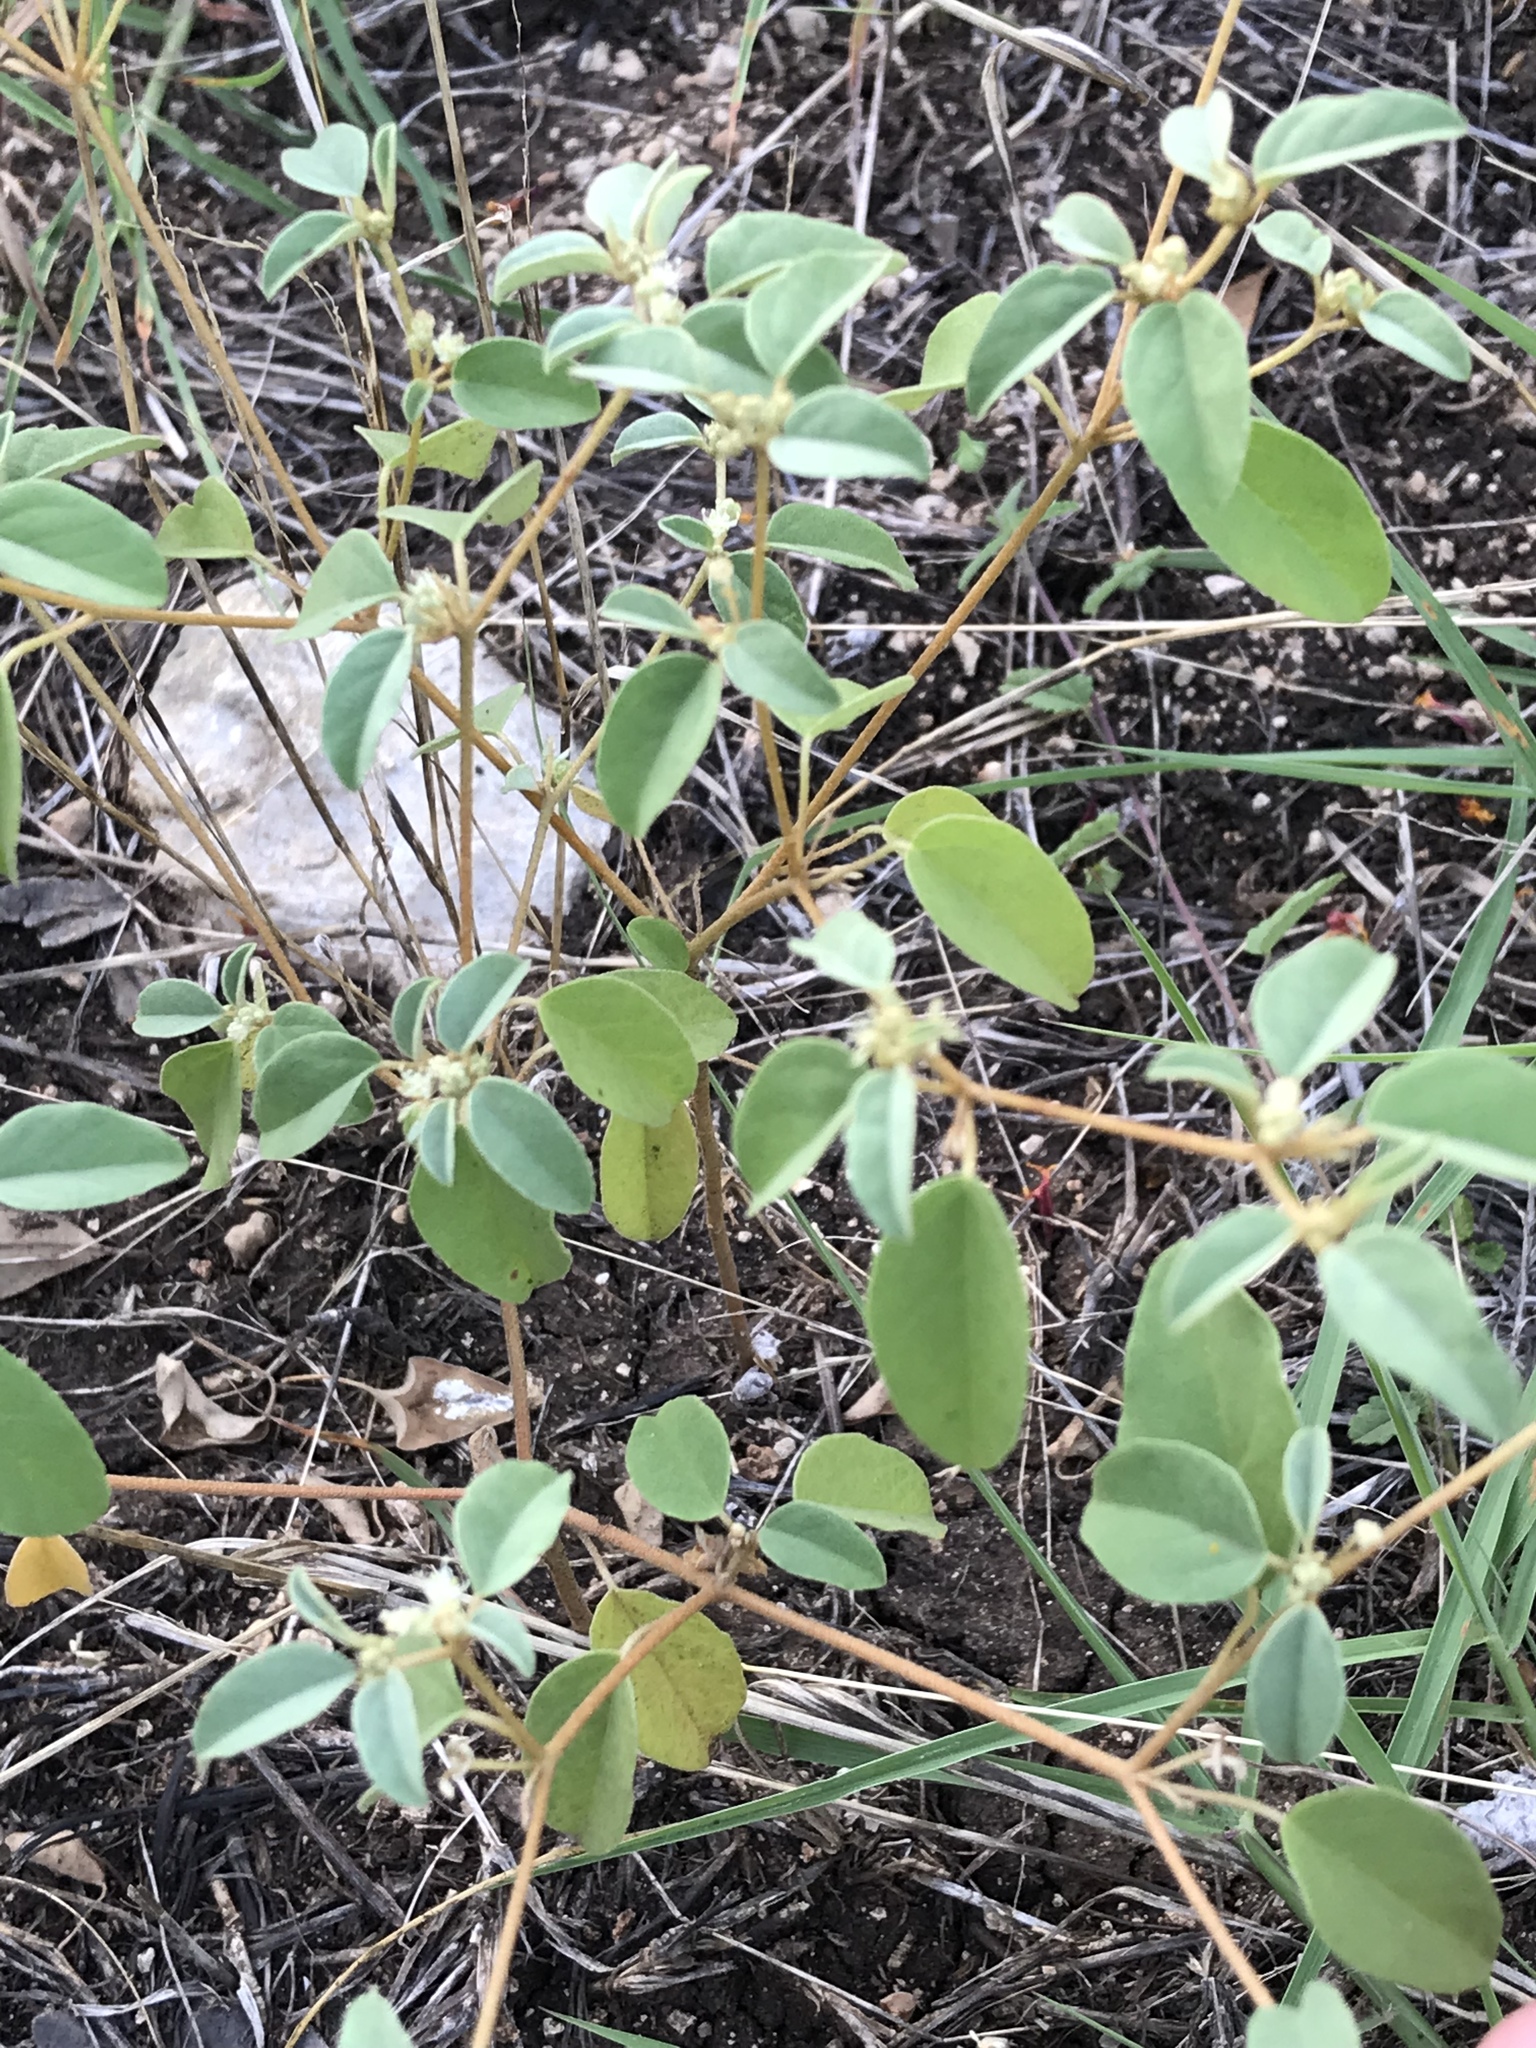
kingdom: Plantae
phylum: Tracheophyta
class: Magnoliopsida
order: Malpighiales
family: Euphorbiaceae
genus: Croton
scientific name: Croton monanthogynus
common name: One-seed croton
